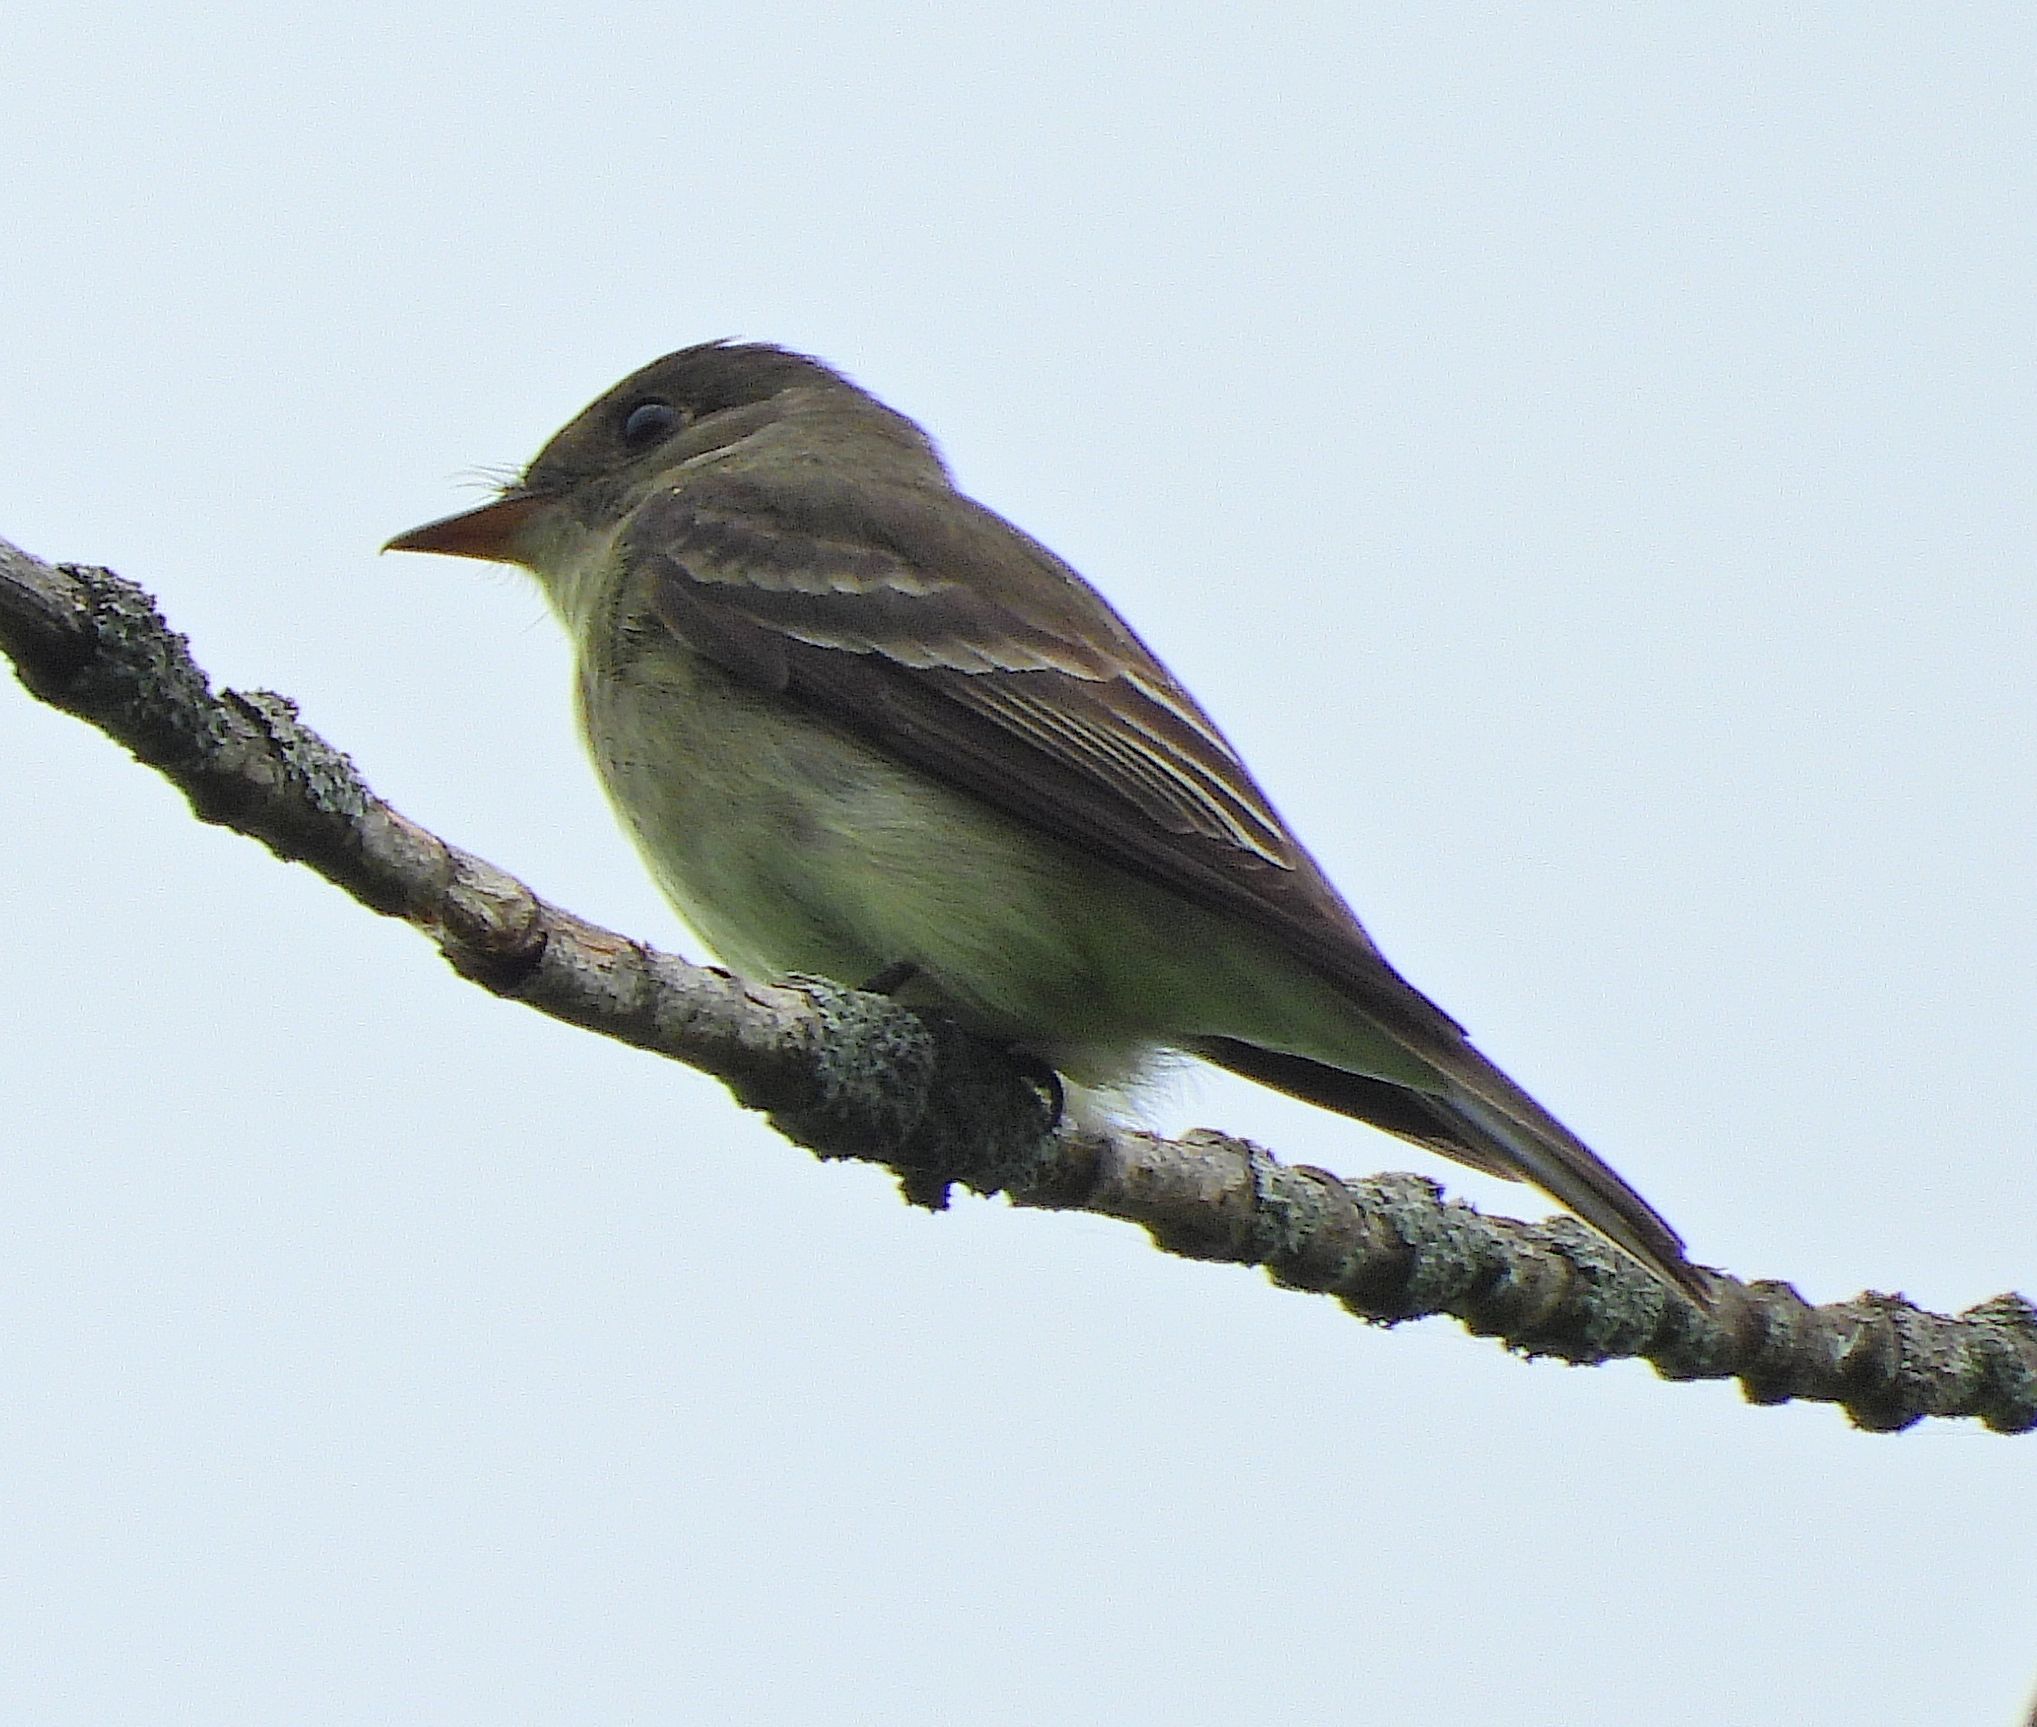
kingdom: Animalia
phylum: Chordata
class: Aves
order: Passeriformes
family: Tyrannidae
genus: Contopus
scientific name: Contopus virens
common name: Eastern wood-pewee
